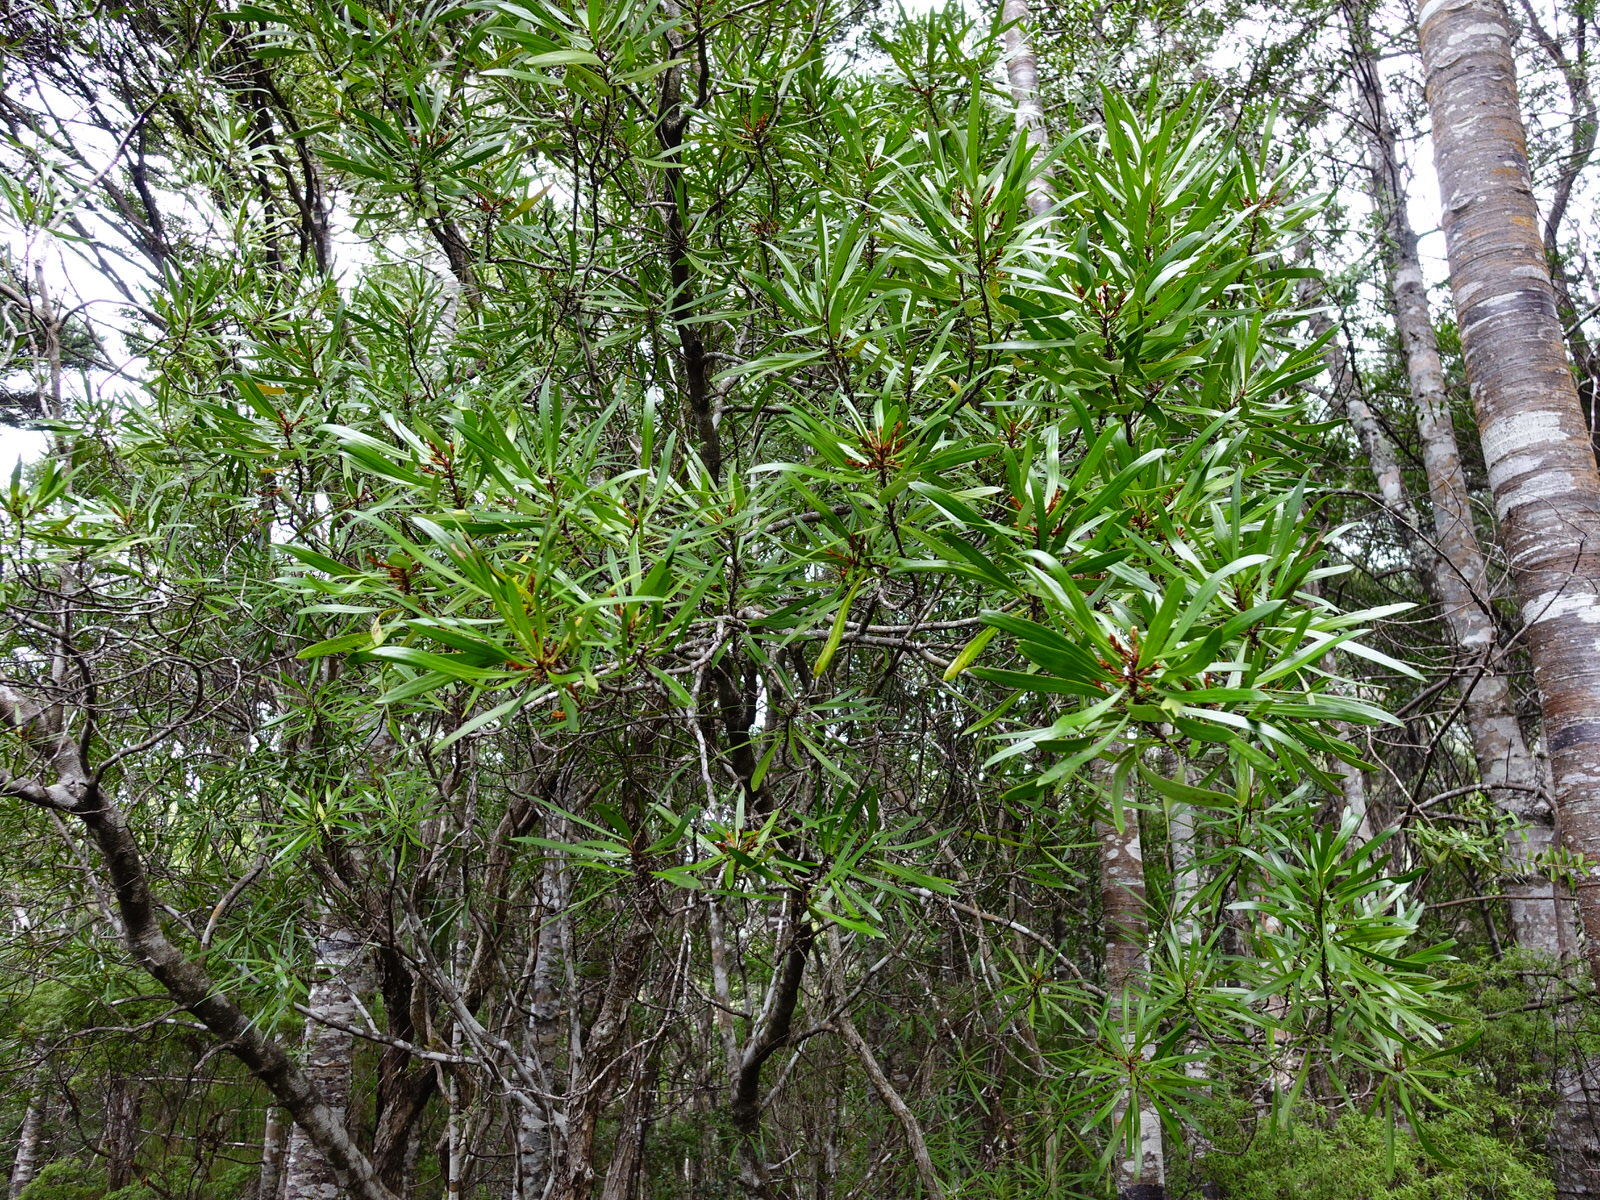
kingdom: Plantae
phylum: Tracheophyta
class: Magnoliopsida
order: Proteales
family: Proteaceae
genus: Toronia
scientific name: Toronia toru
